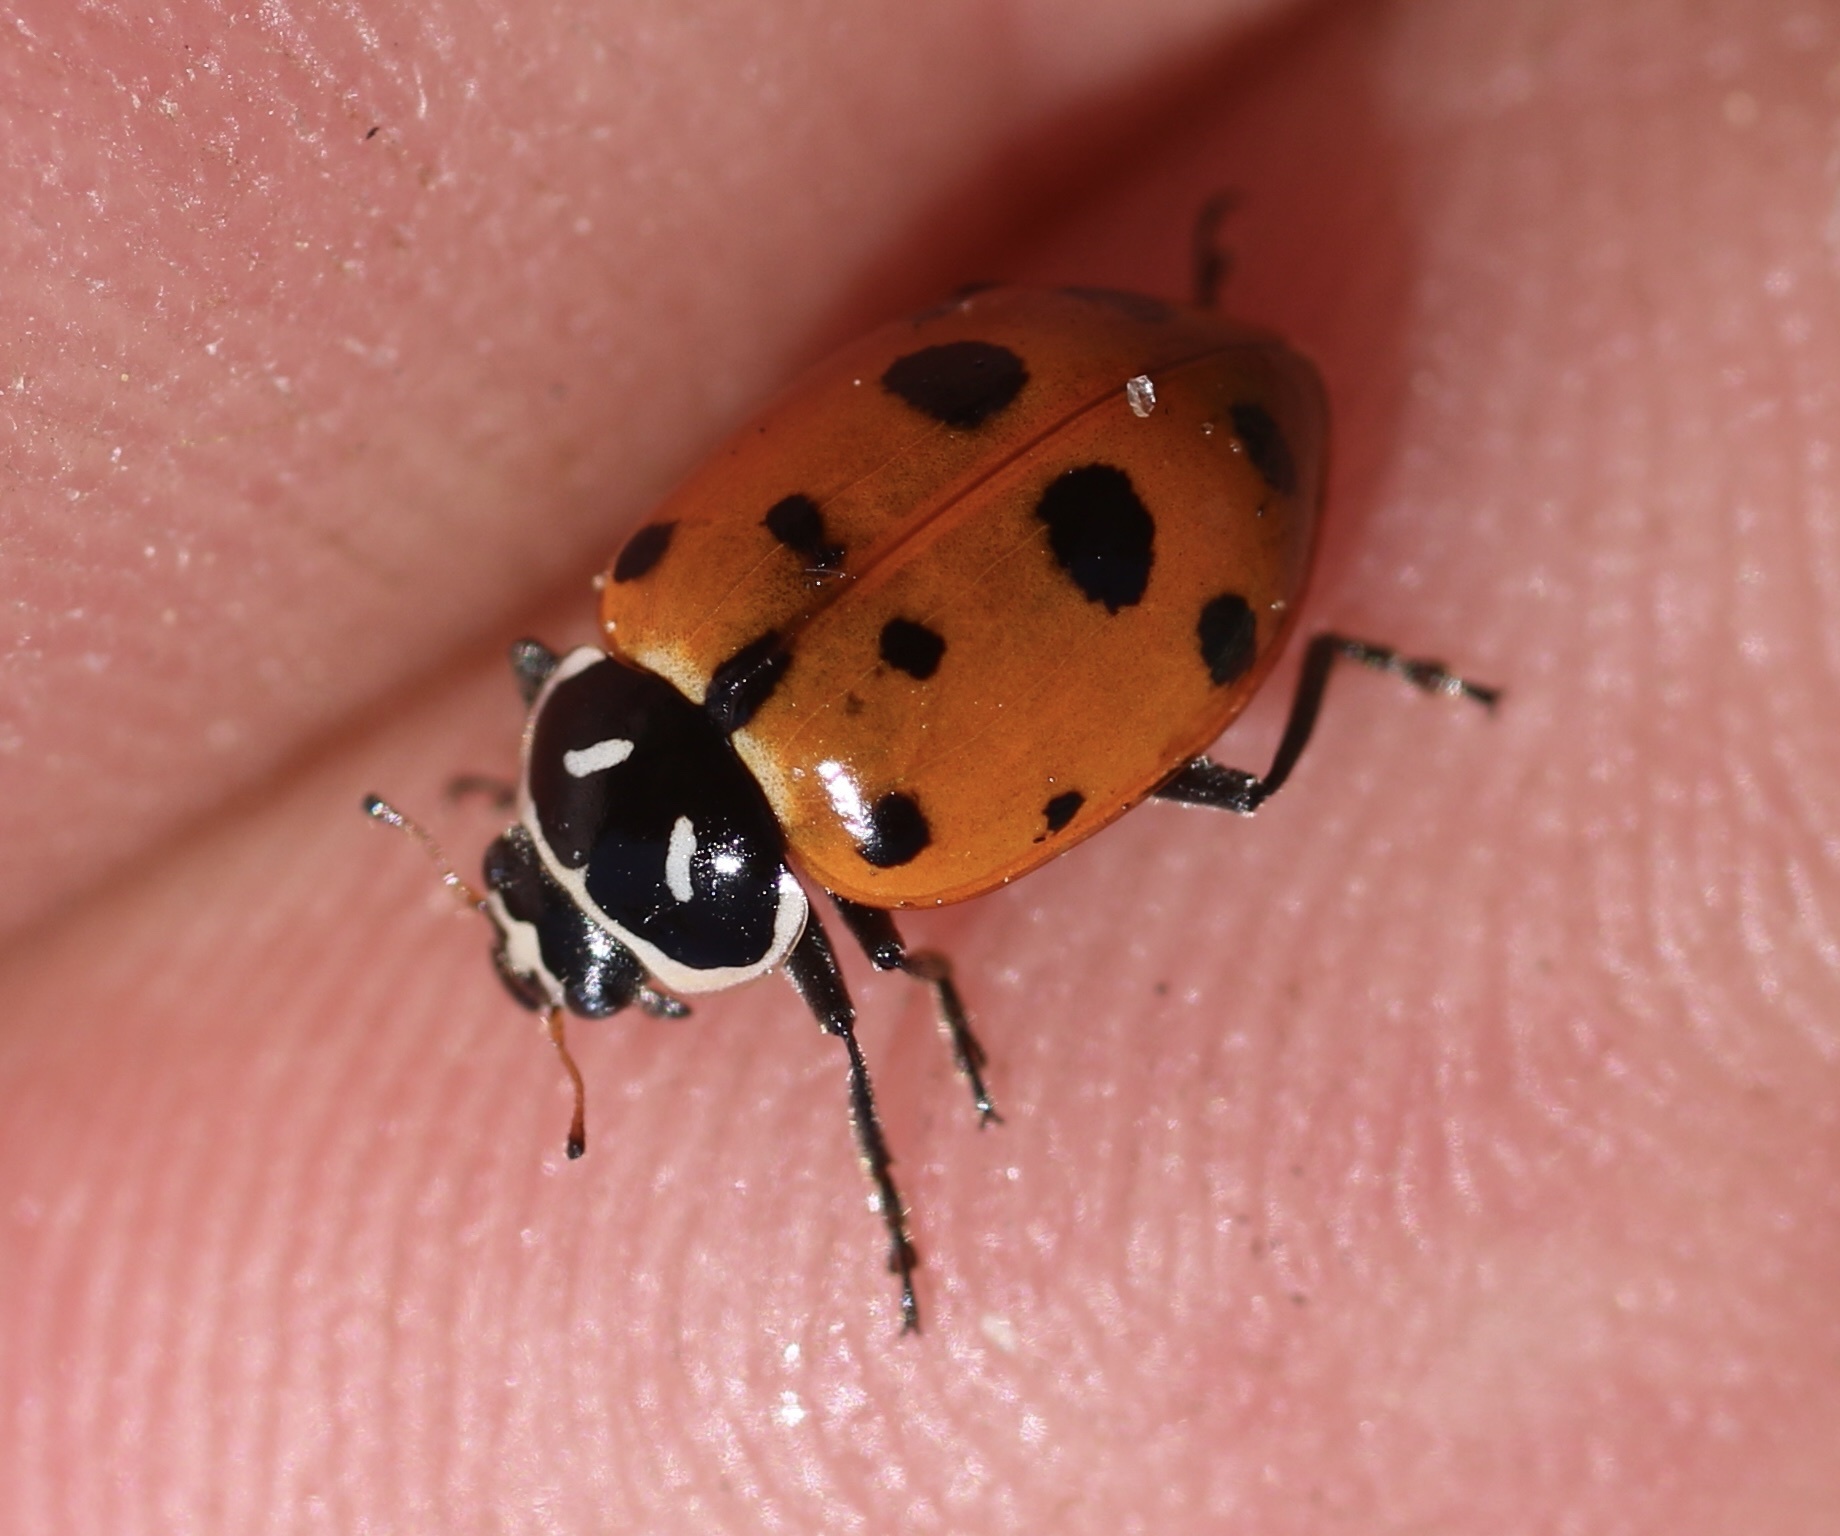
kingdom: Animalia
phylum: Arthropoda
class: Insecta
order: Coleoptera
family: Coccinellidae
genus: Hippodamia
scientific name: Hippodamia convergens
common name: Convergent lady beetle
